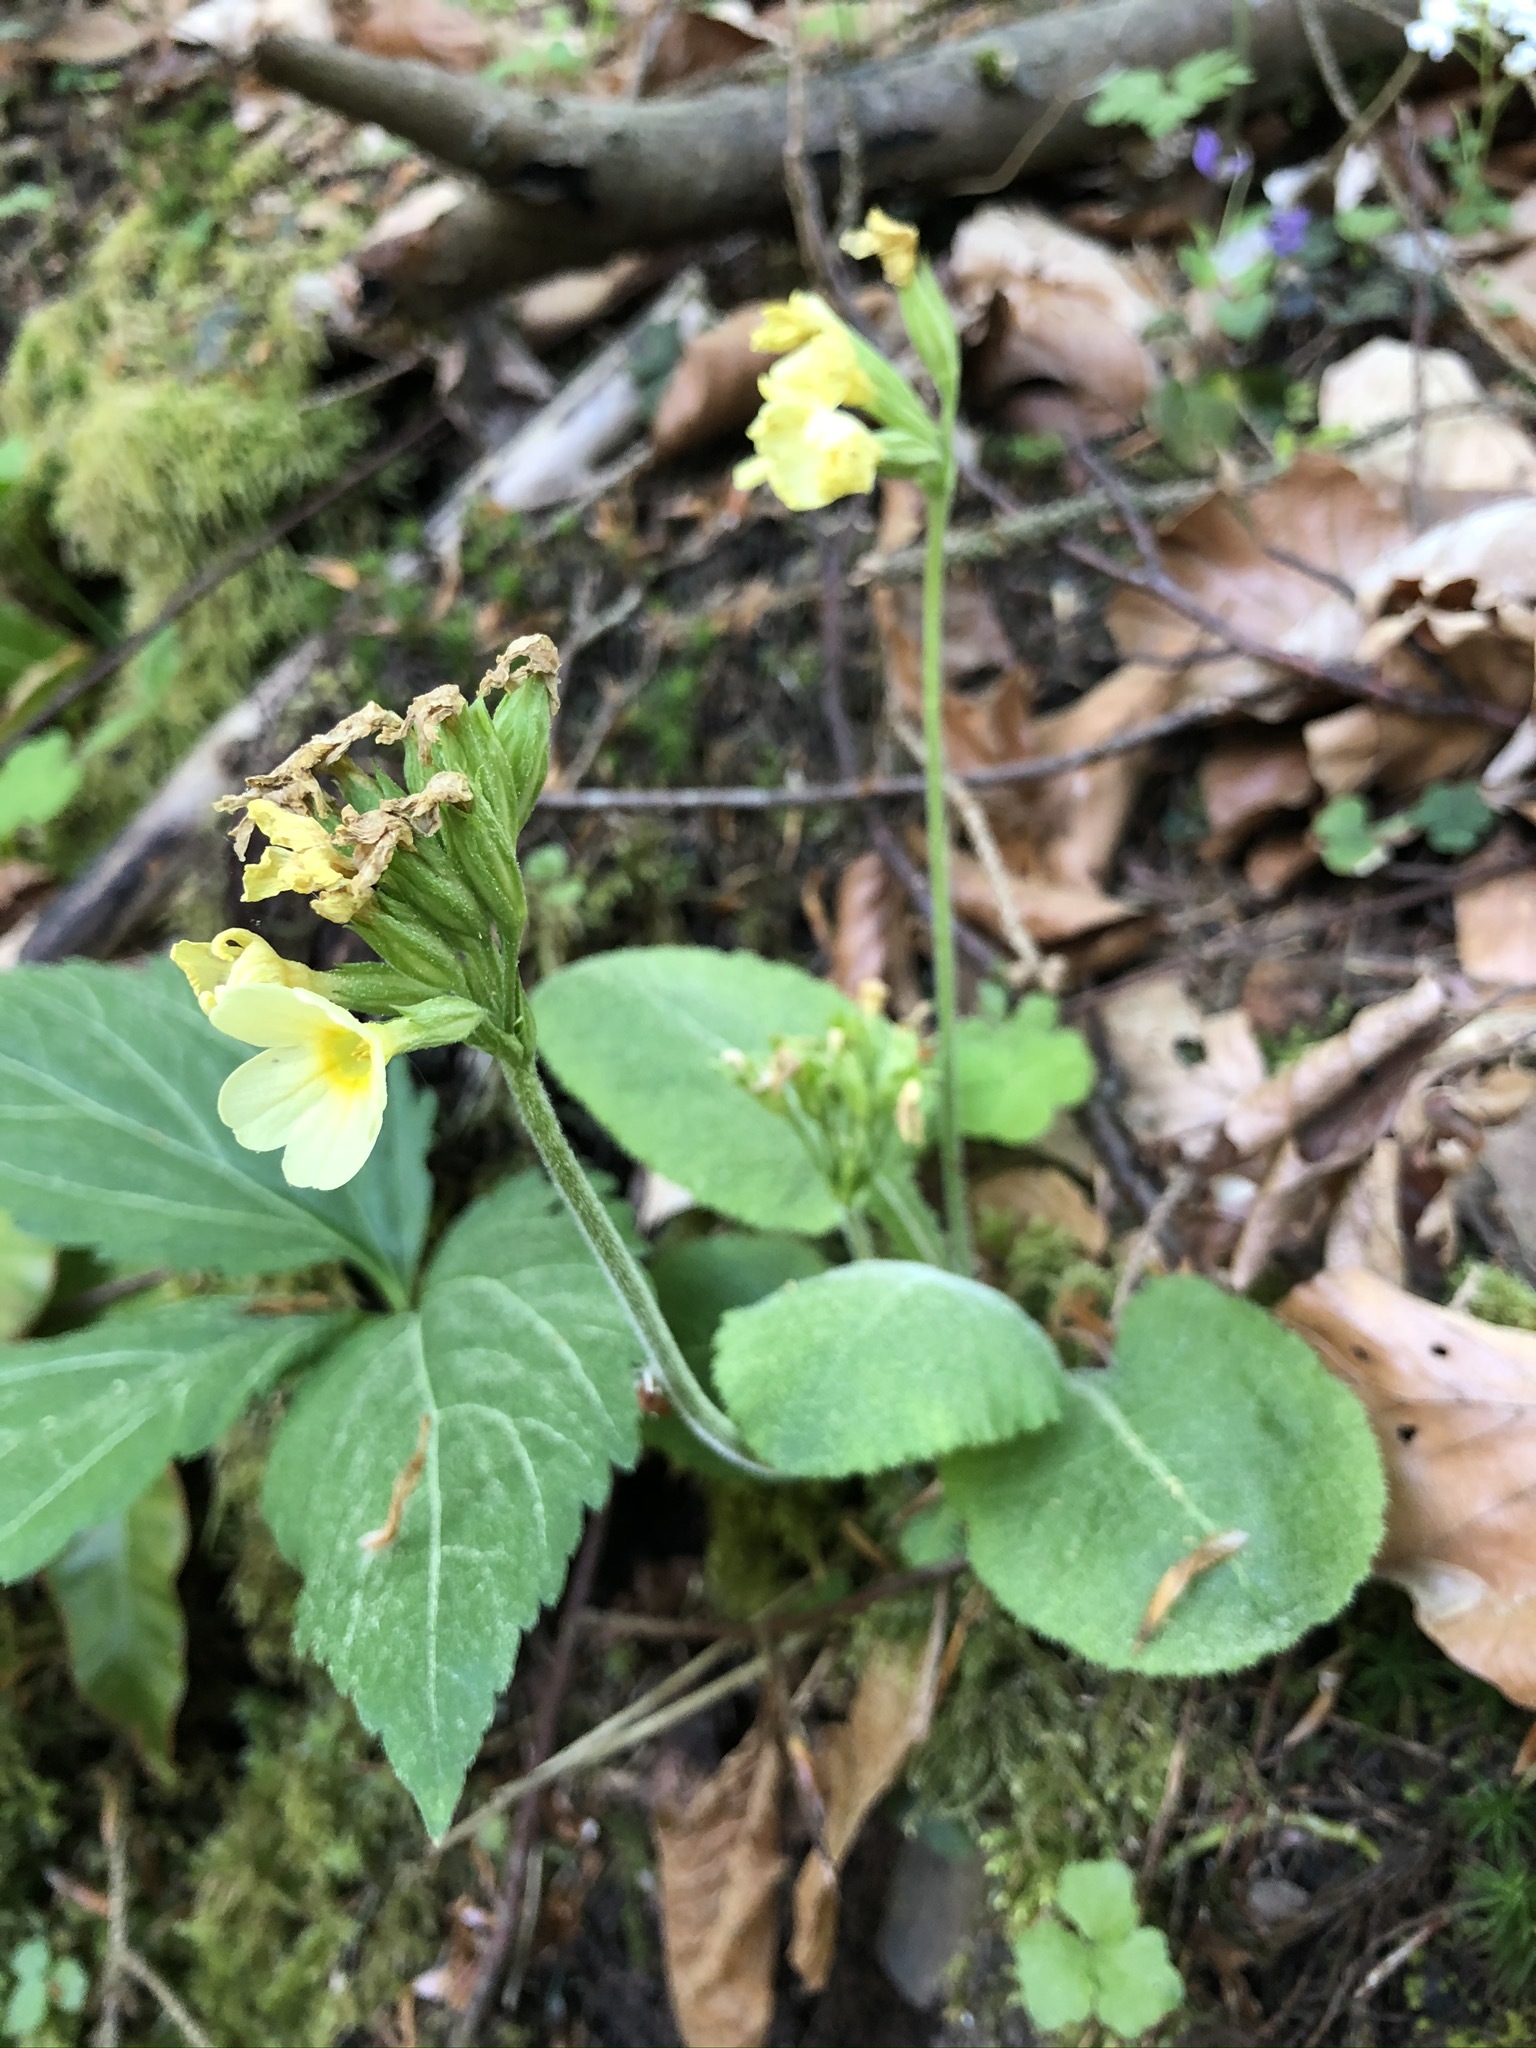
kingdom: Plantae
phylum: Tracheophyta
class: Magnoliopsida
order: Ericales
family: Primulaceae
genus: Primula
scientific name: Primula elatior
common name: Oxlip
